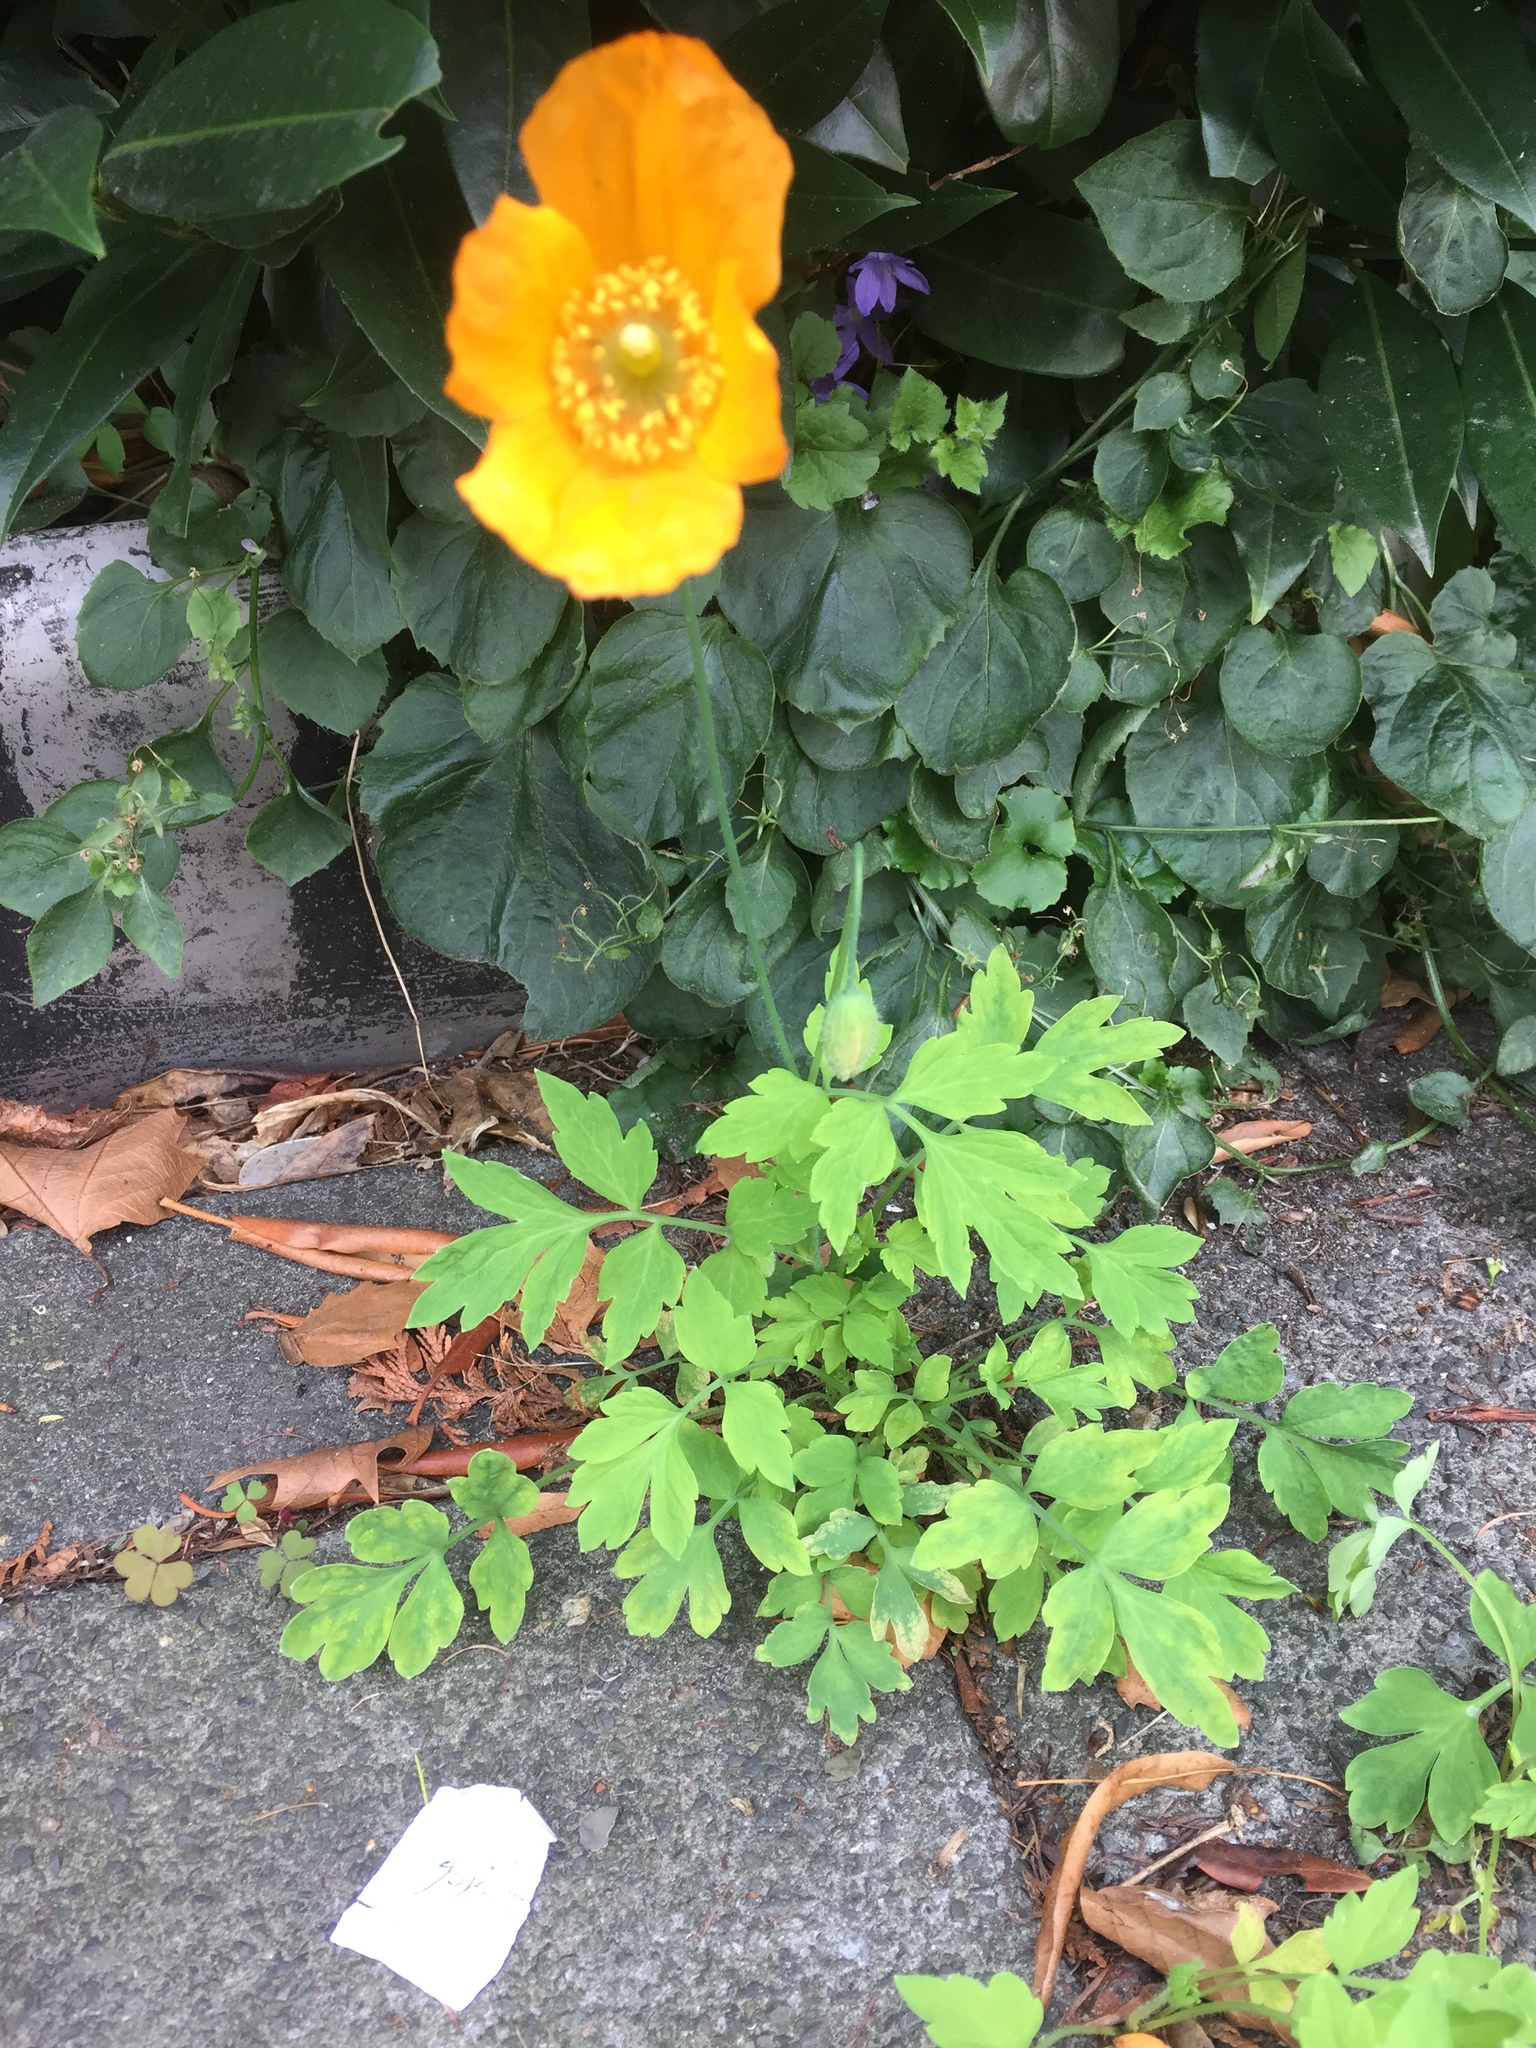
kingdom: Plantae
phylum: Tracheophyta
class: Magnoliopsida
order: Ranunculales
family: Papaveraceae
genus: Papaver
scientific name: Papaver cambricum
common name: Poppy
